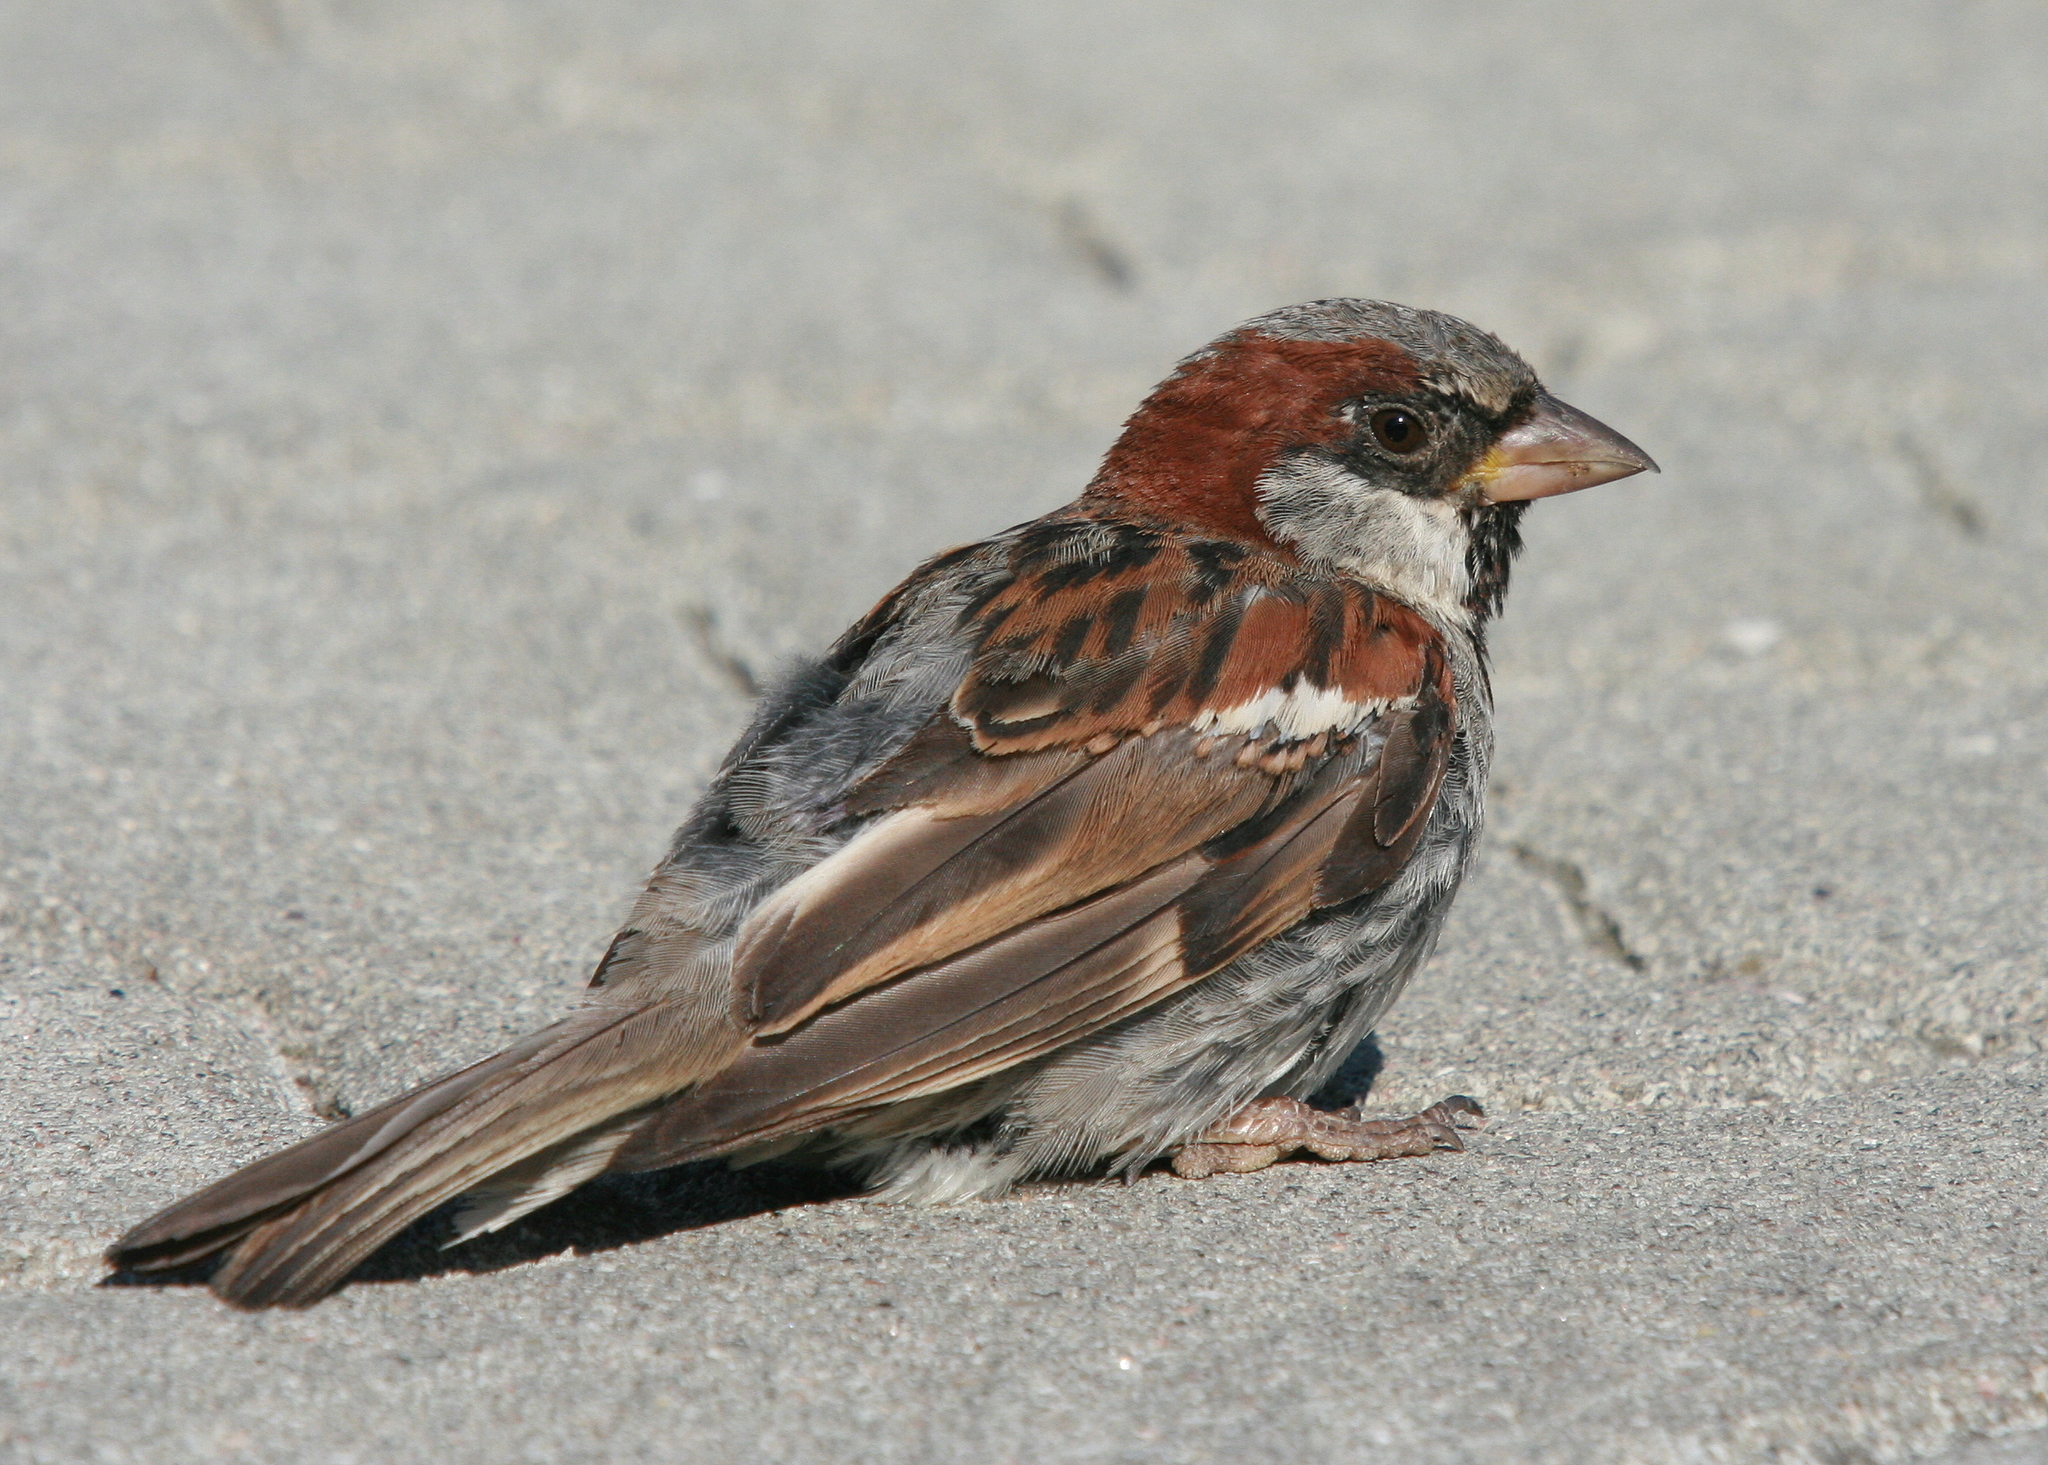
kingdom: Animalia
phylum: Chordata
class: Aves
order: Passeriformes
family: Passeridae
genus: Passer
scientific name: Passer domesticus
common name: House sparrow
